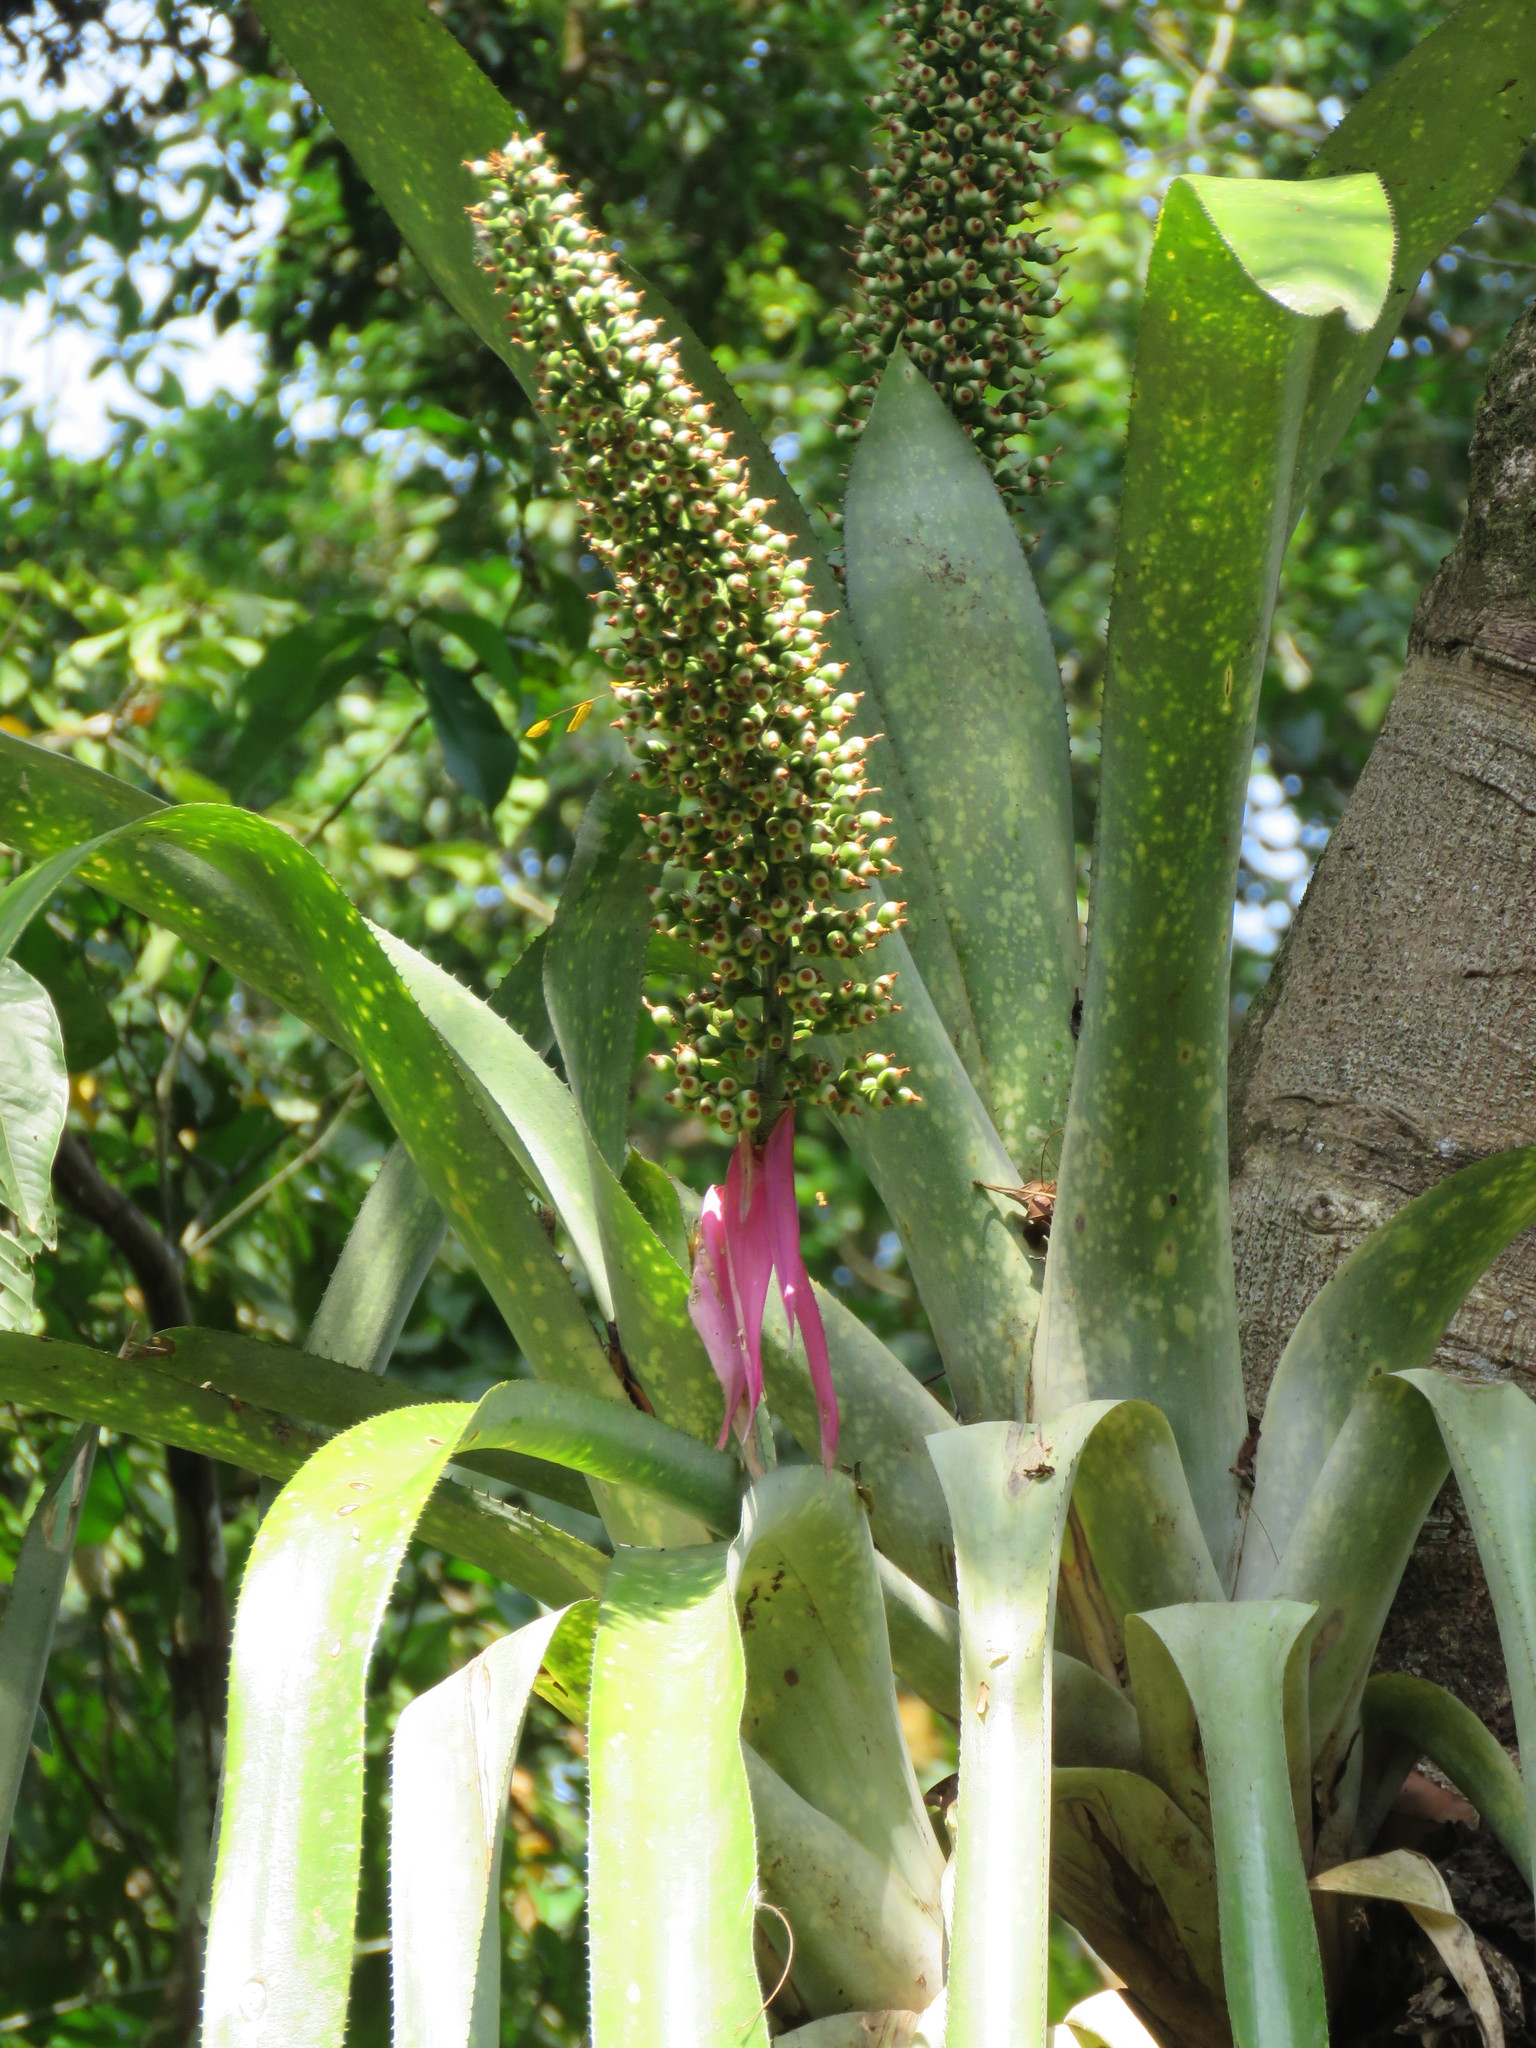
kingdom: Plantae
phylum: Tracheophyta
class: Liliopsida
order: Poales
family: Bromeliaceae
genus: Aechmea
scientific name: Aechmea castelnavii
